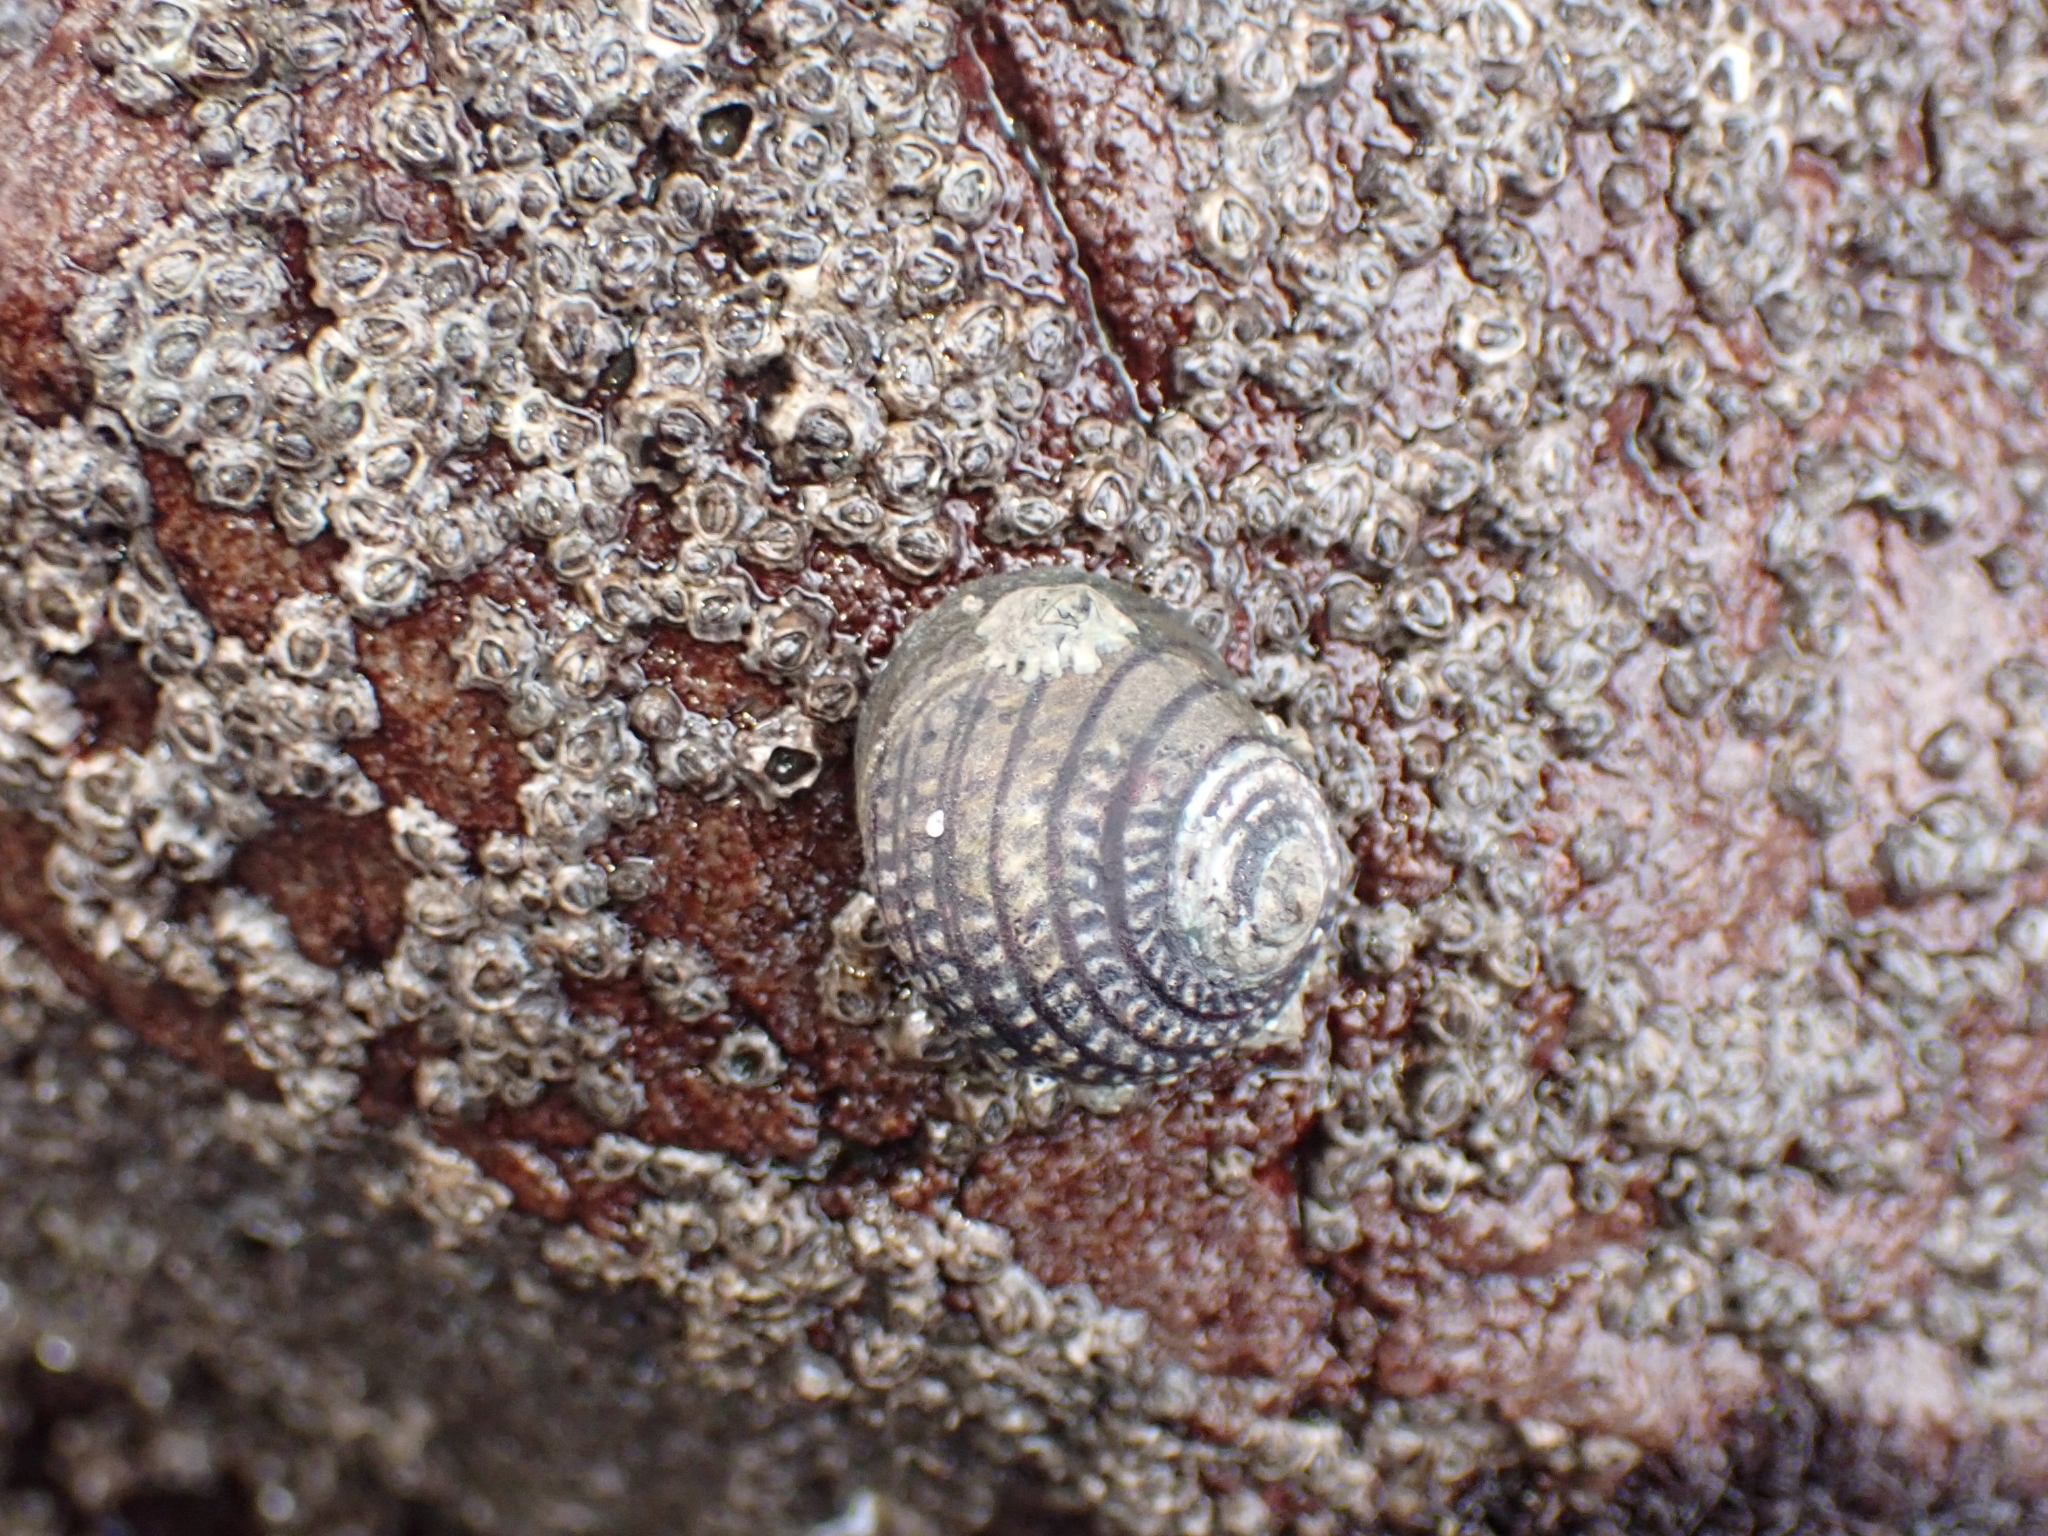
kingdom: Animalia
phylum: Mollusca
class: Gastropoda
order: Trochida
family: Trochidae
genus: Diloma
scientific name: Diloma aethiops
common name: Scorched monodont
